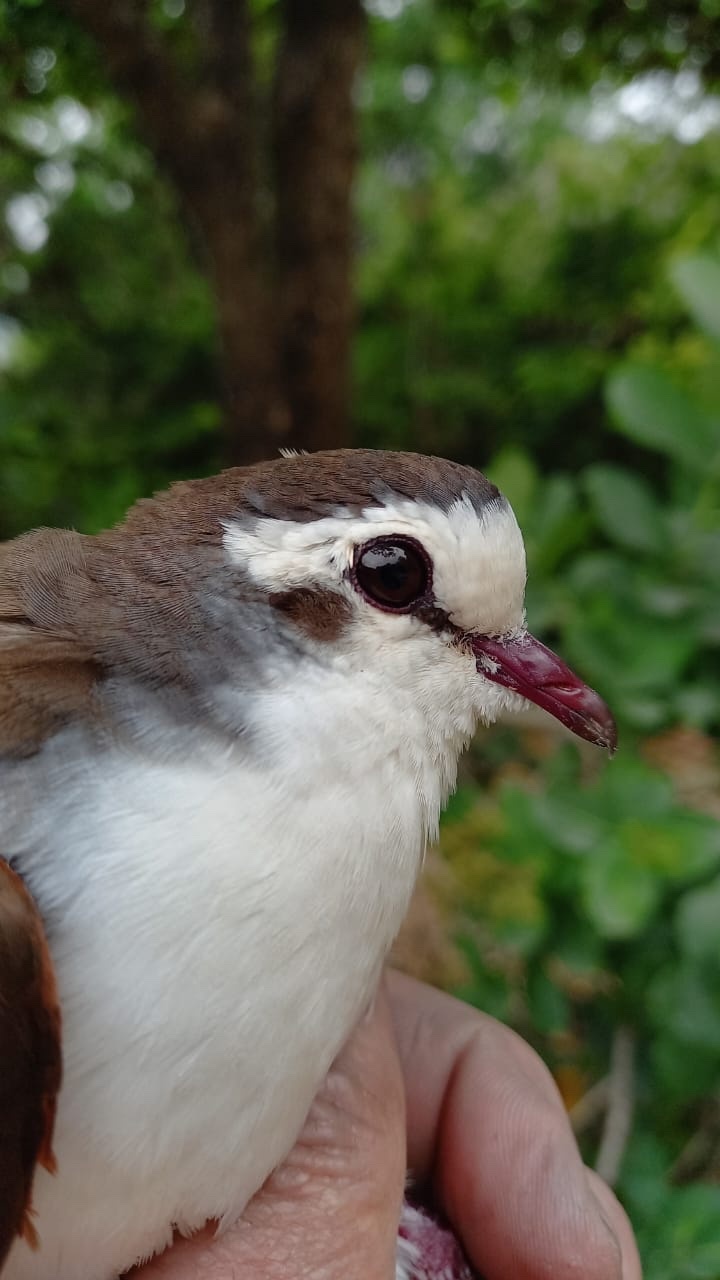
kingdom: Animalia
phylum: Chordata
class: Aves
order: Columbiformes
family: Columbidae
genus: Turtur
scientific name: Turtur tympanistria
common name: Tambourine dove
